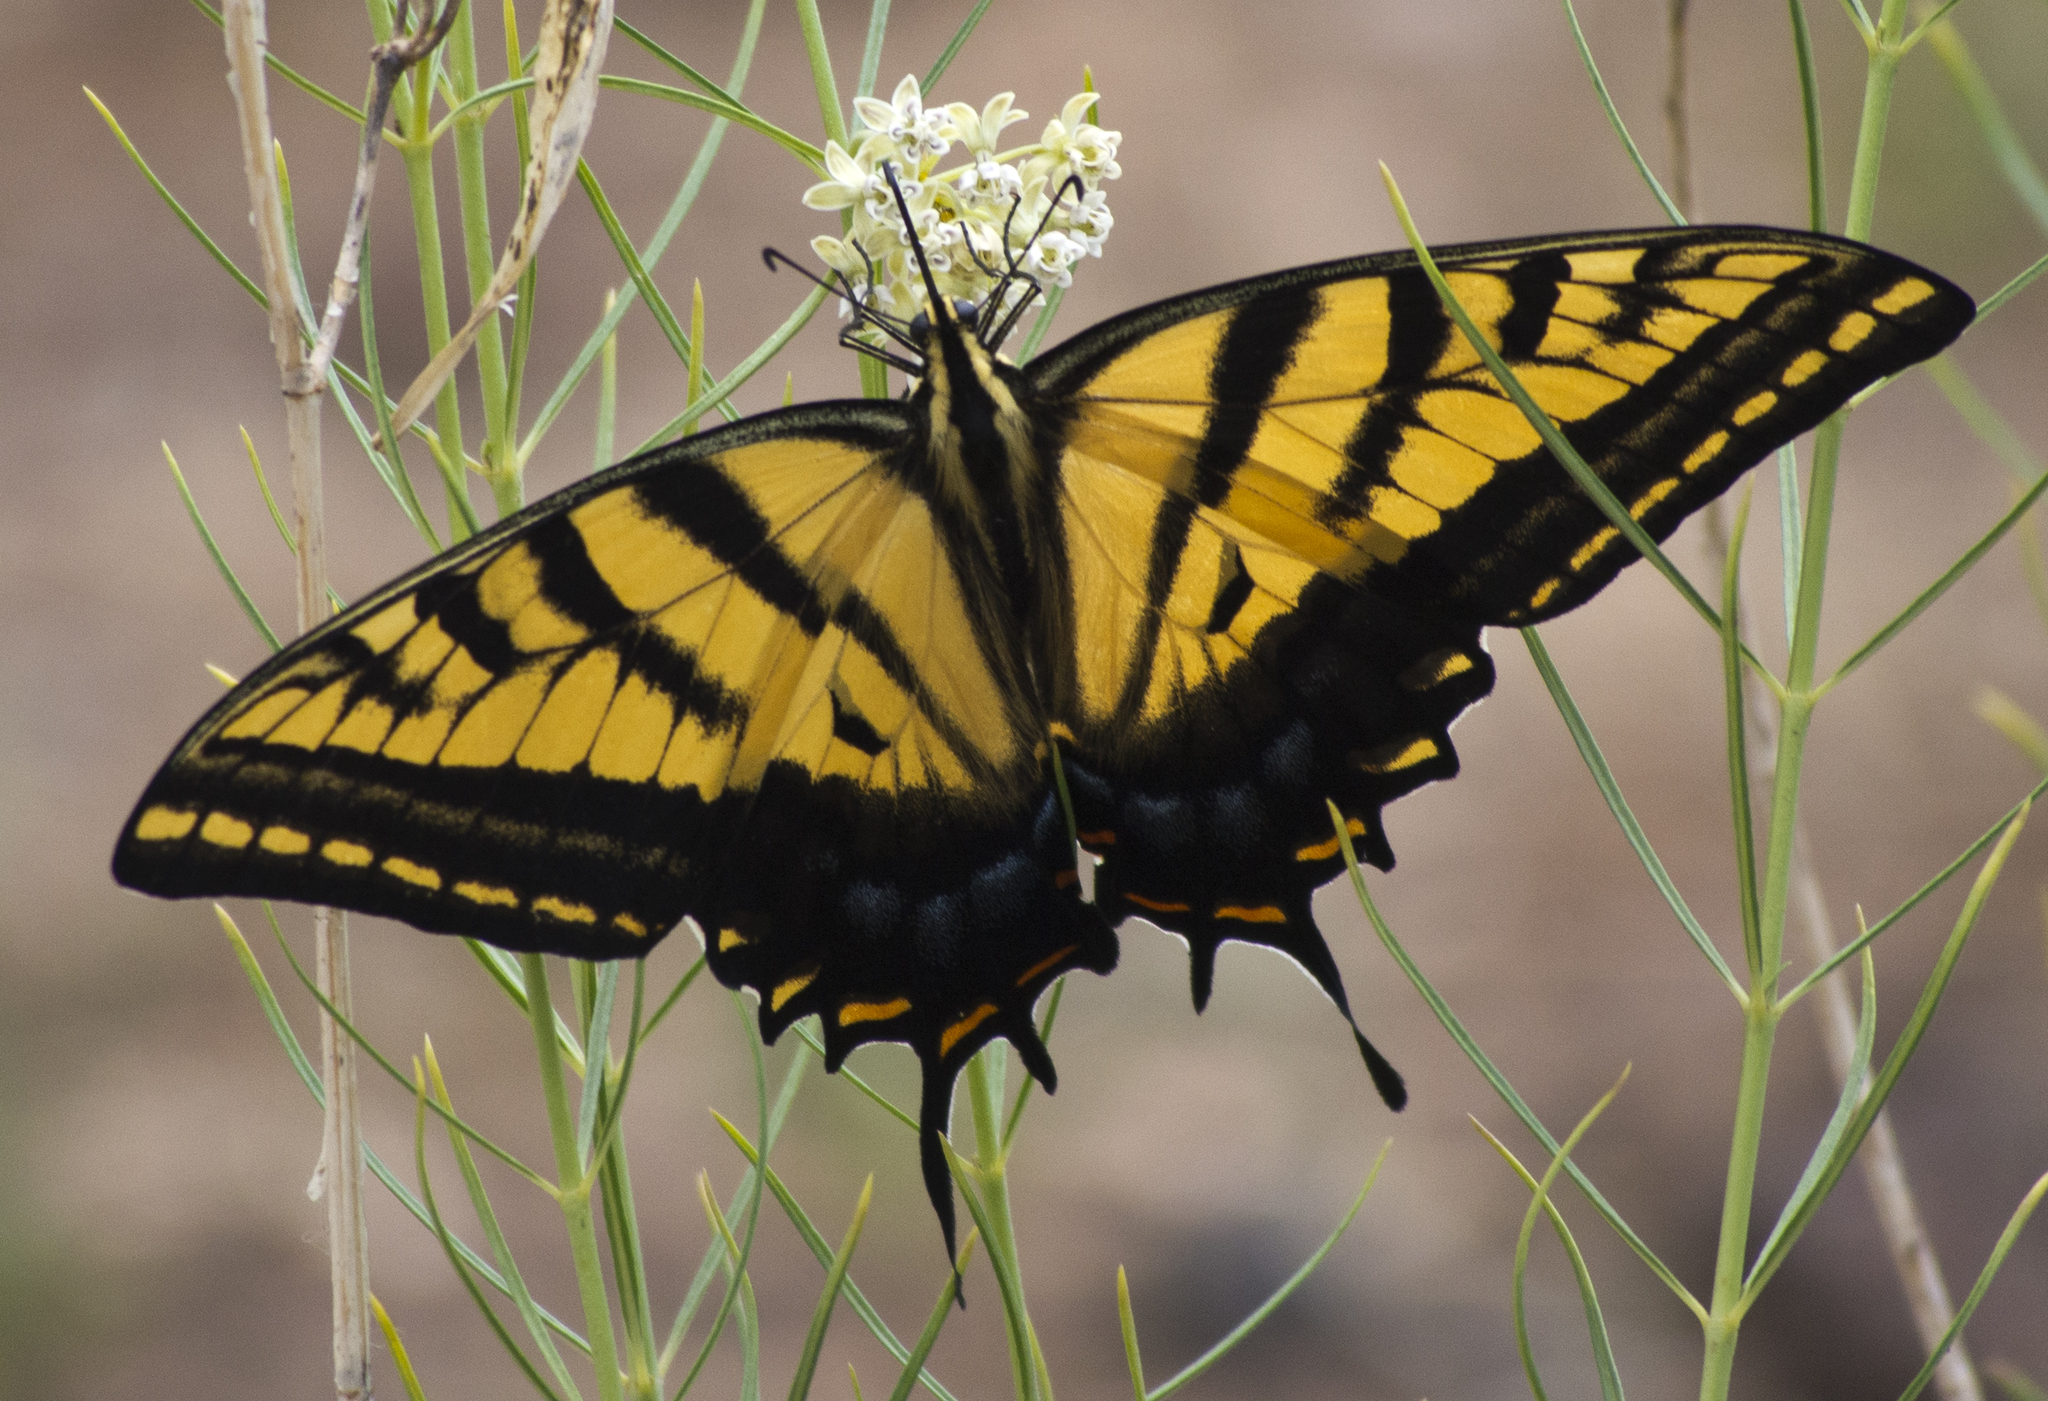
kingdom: Animalia
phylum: Arthropoda
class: Insecta
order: Lepidoptera
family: Papilionidae
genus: Papilio
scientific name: Papilio multicaudata
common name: Two-tailed tiger swallowtail
